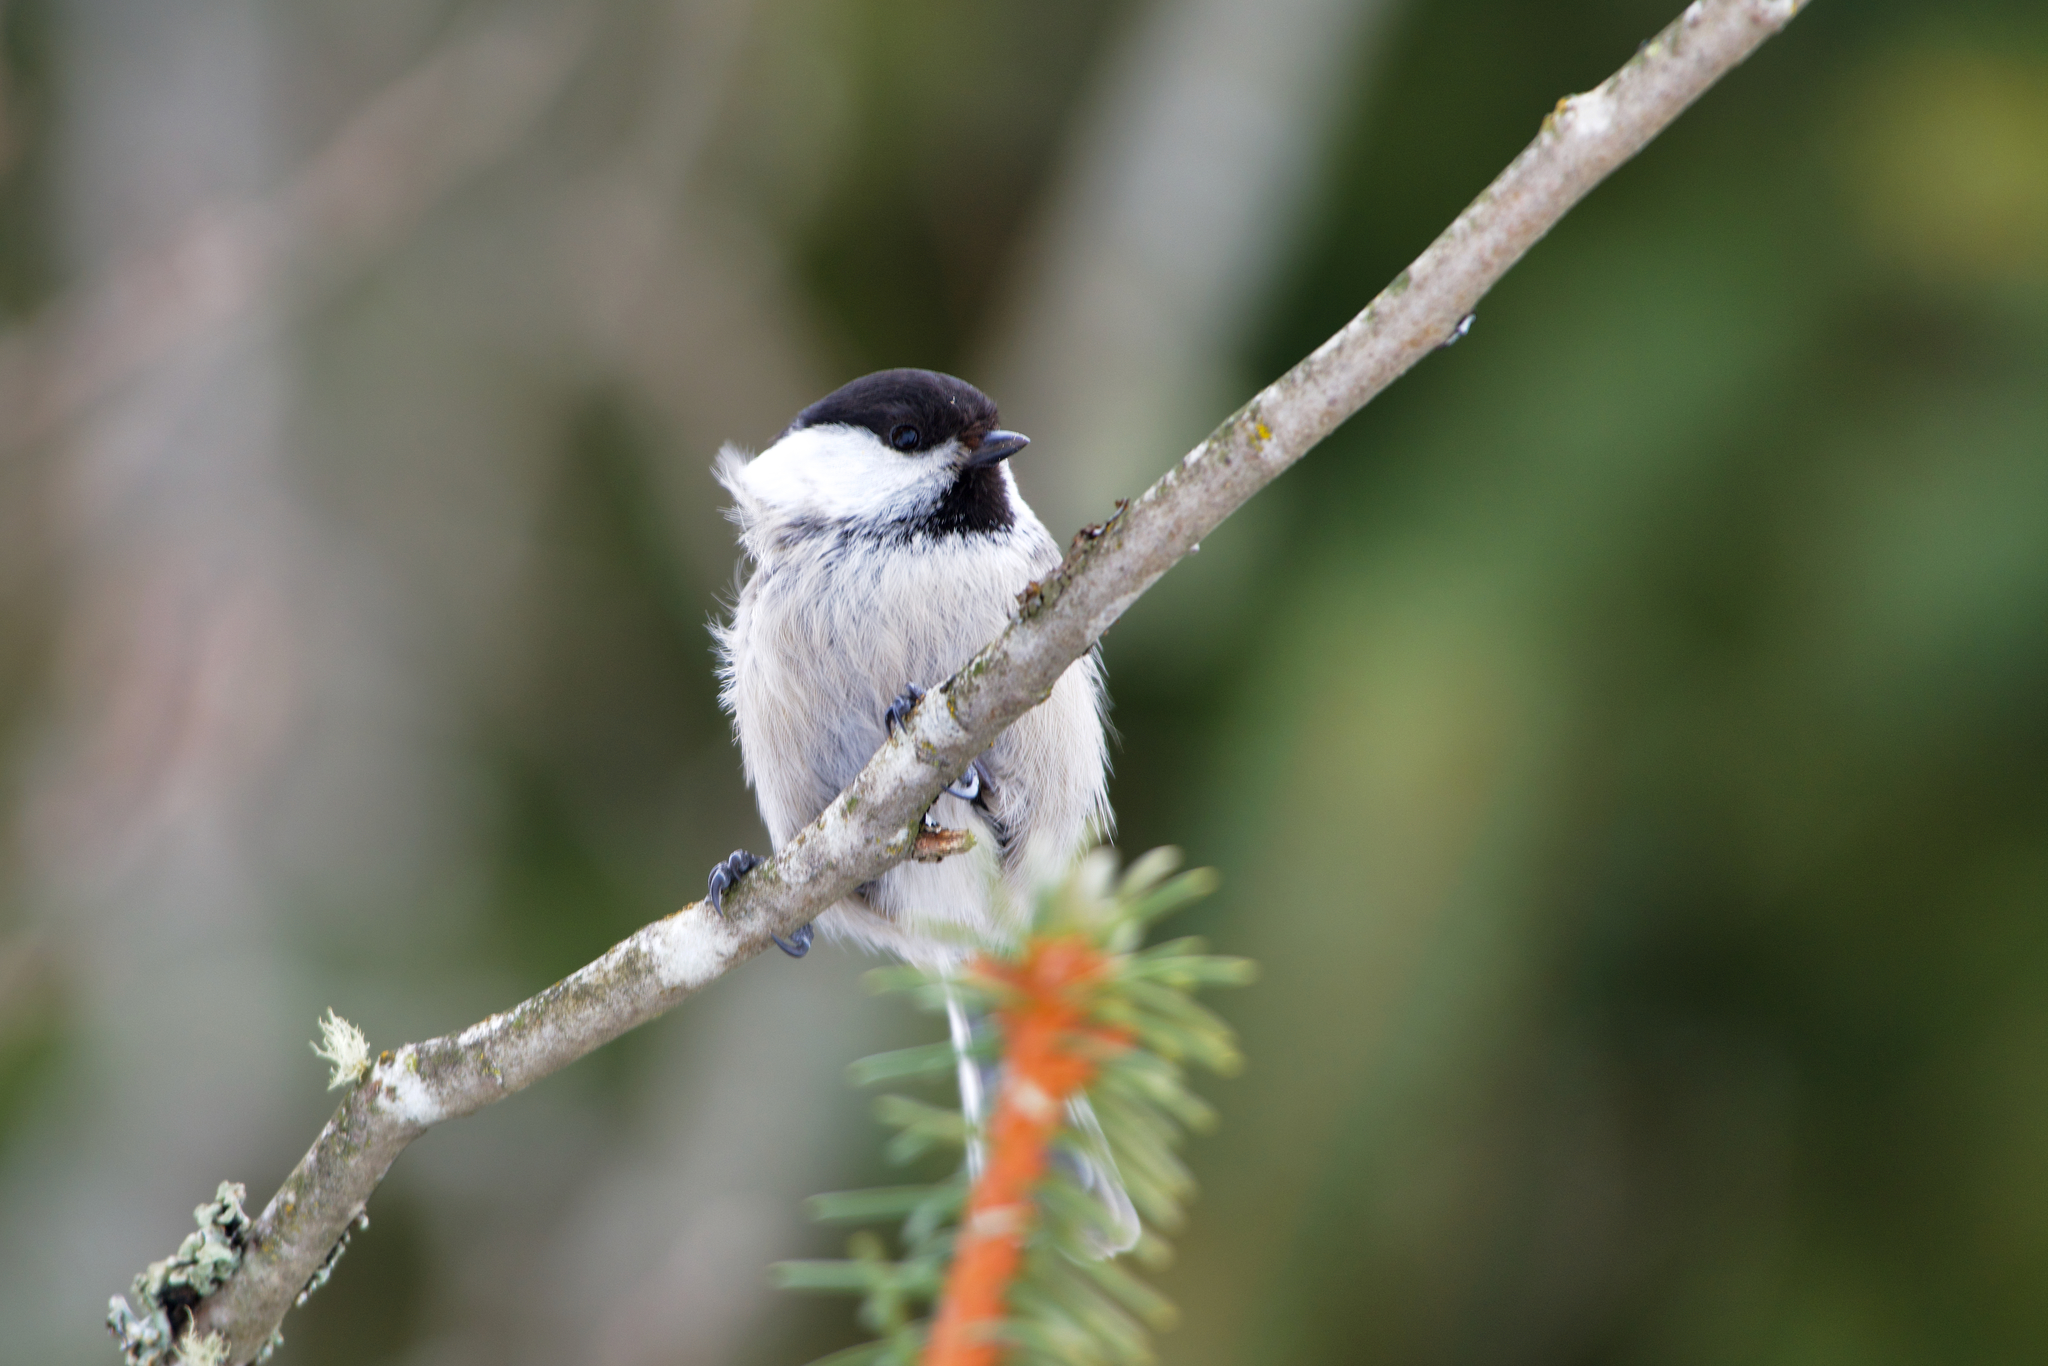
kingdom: Animalia
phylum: Chordata
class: Aves
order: Passeriformes
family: Paridae
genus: Poecile
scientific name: Poecile montanus
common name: Willow tit
